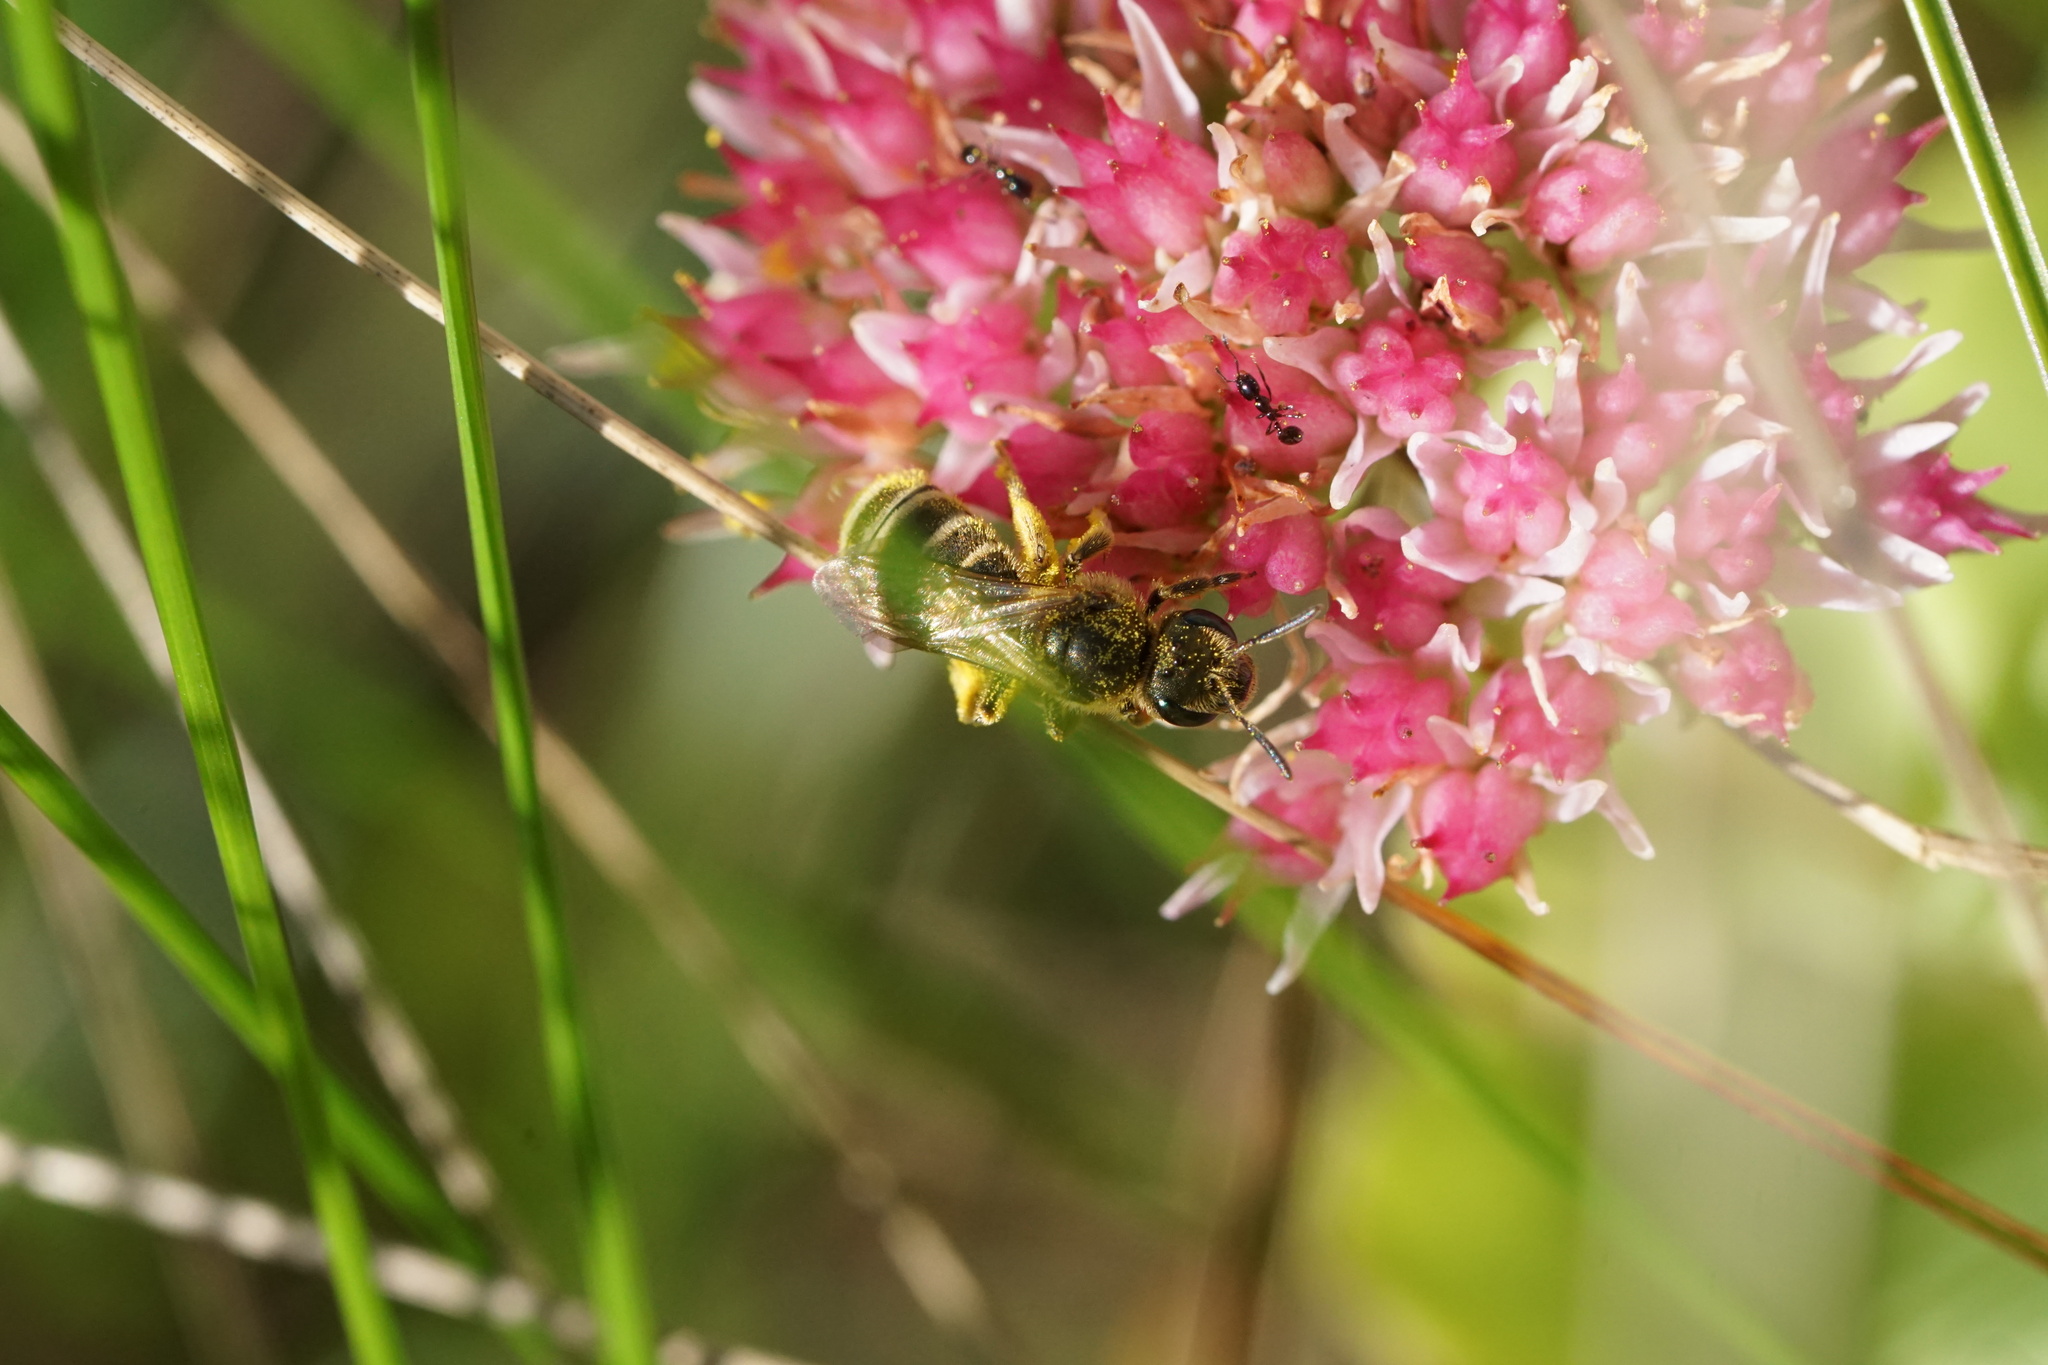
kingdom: Animalia
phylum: Arthropoda
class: Insecta
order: Hymenoptera
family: Halictidae
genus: Halictus
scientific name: Halictus confusus
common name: Southern bronze furrow bee
